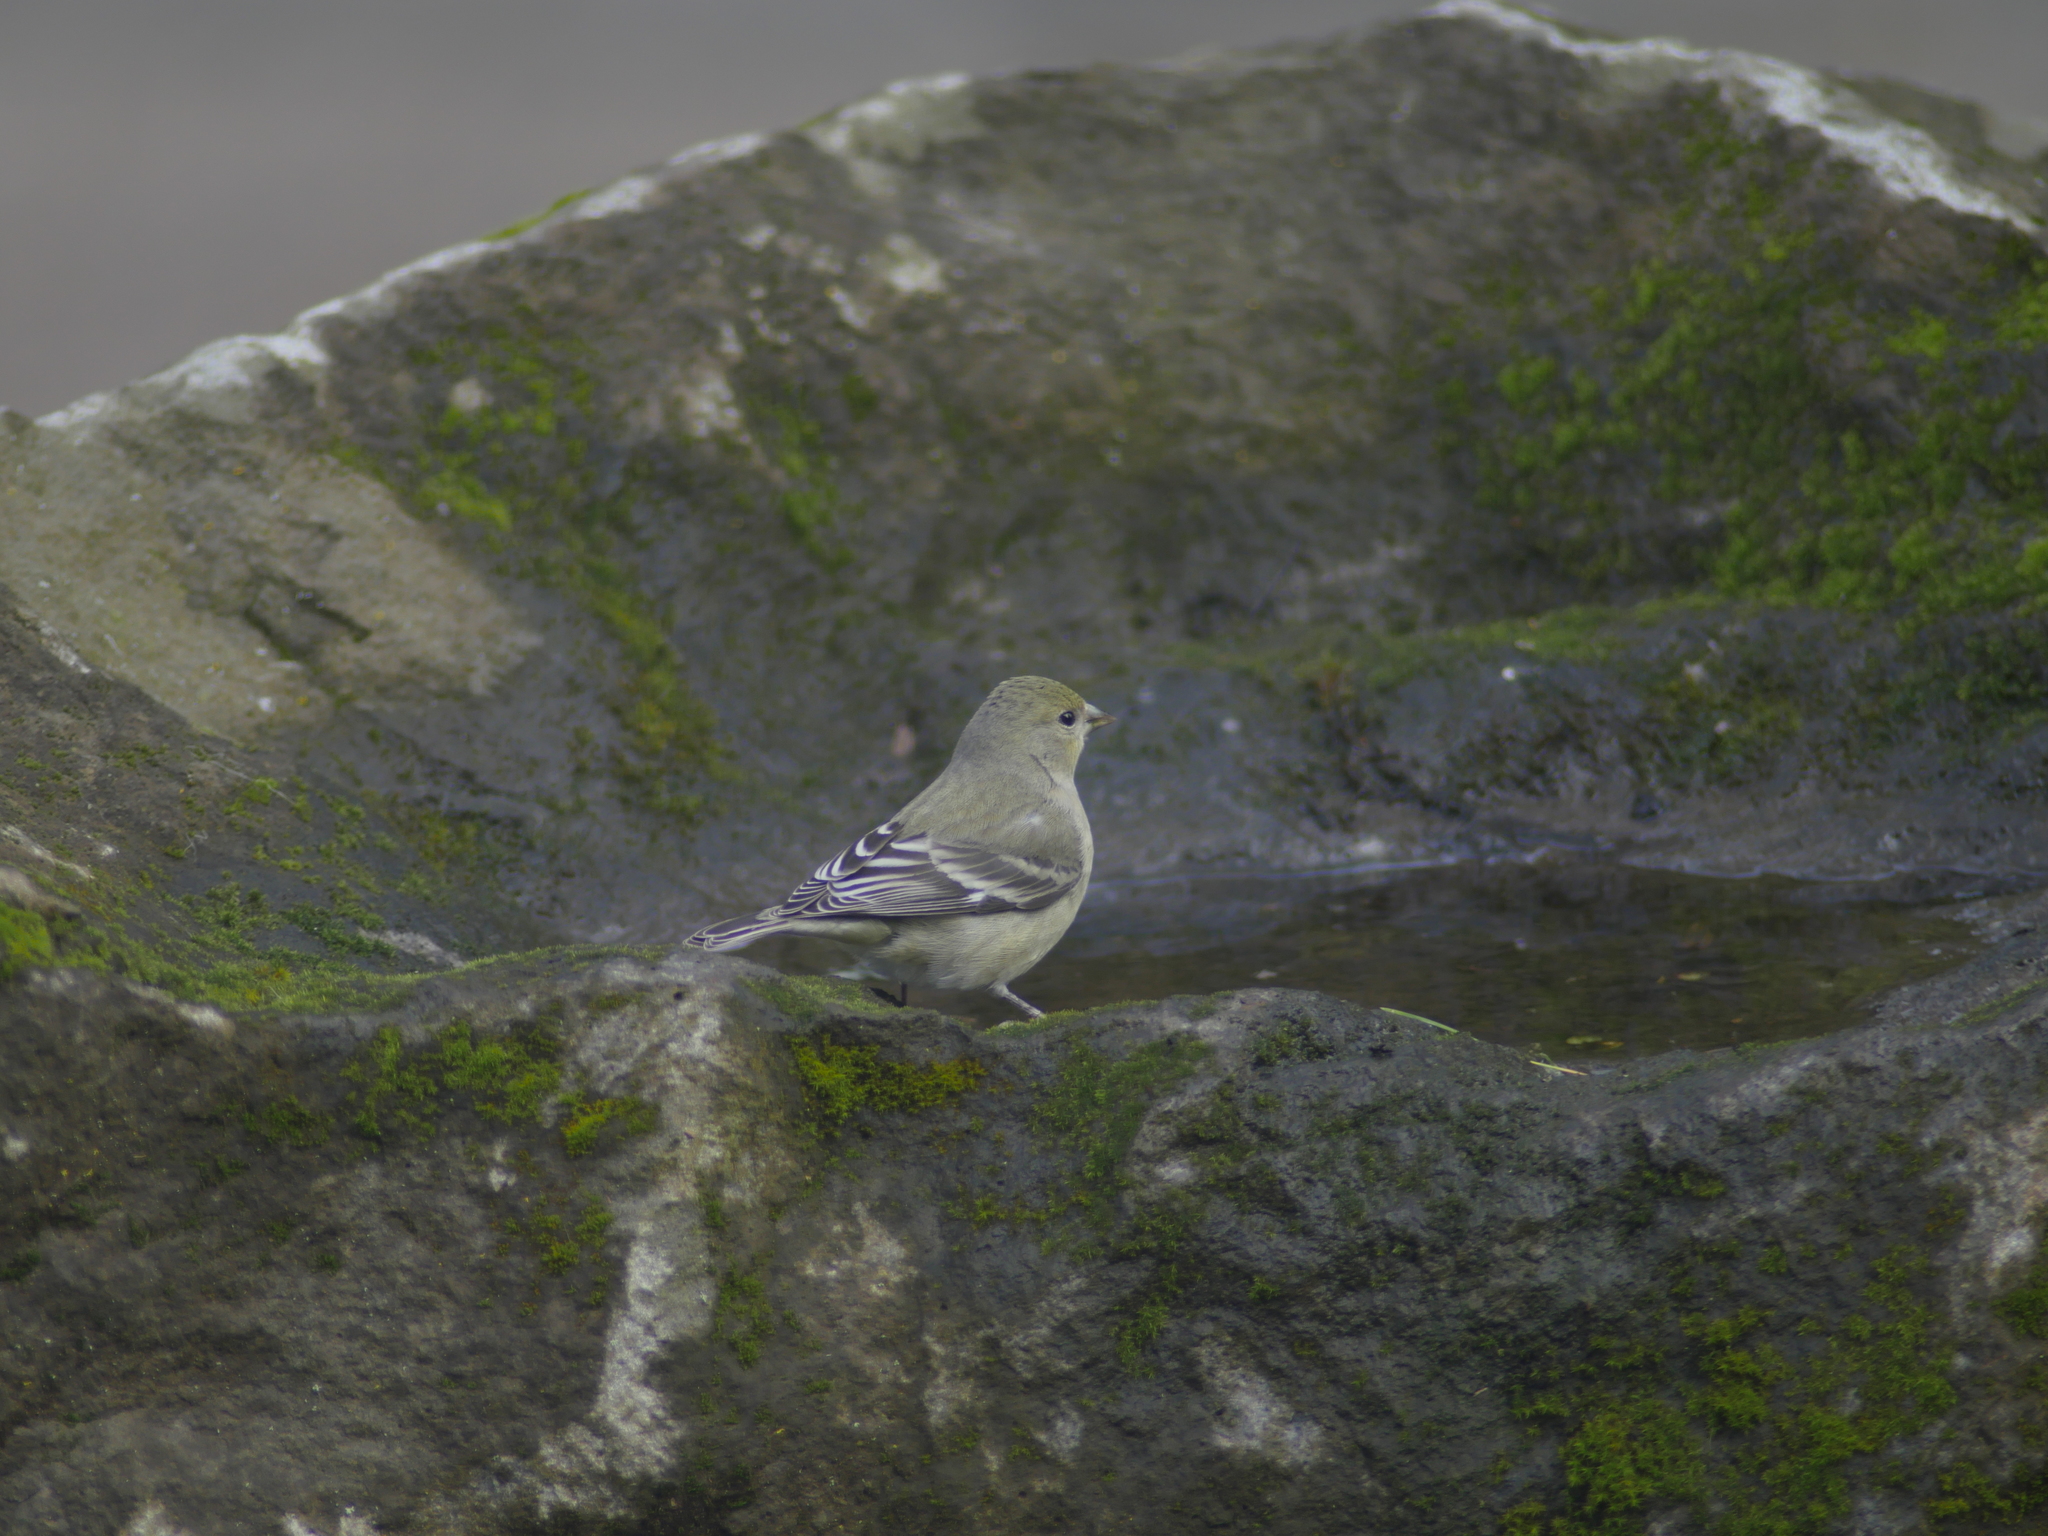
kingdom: Animalia
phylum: Chordata
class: Aves
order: Passeriformes
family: Fringillidae
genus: Spinus
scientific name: Spinus psaltria
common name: Lesser goldfinch
